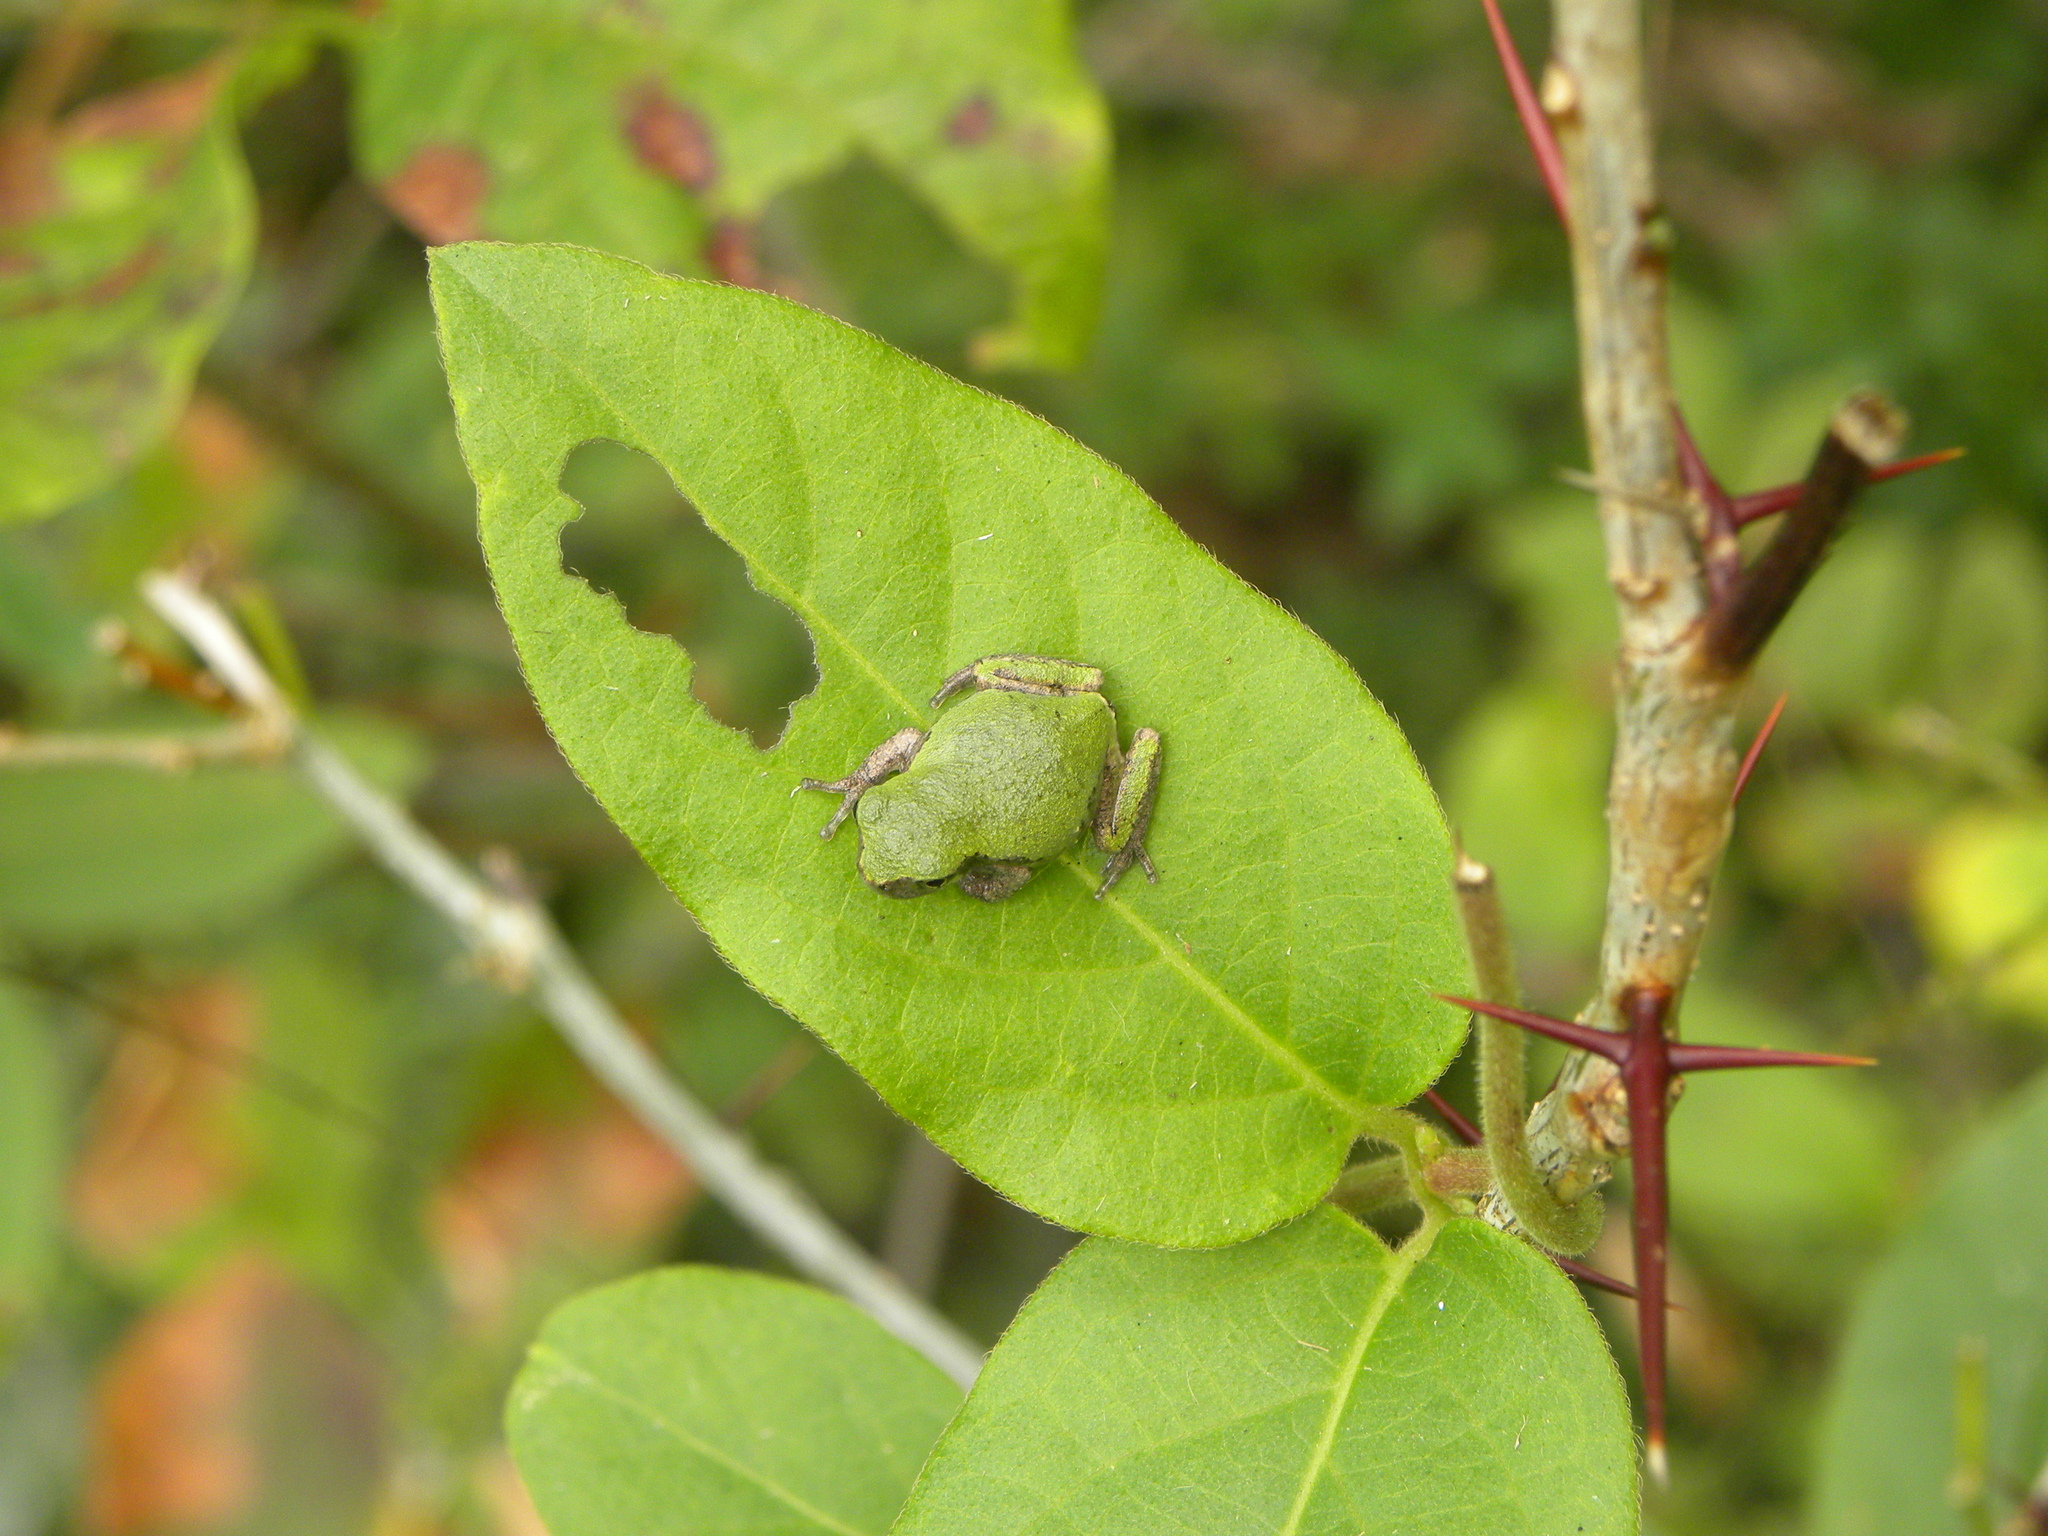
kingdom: Animalia
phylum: Chordata
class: Amphibia
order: Anura
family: Hylidae
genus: Dryophytes
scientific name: Dryophytes chrysoscelis
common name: Cope's gray treefrog
